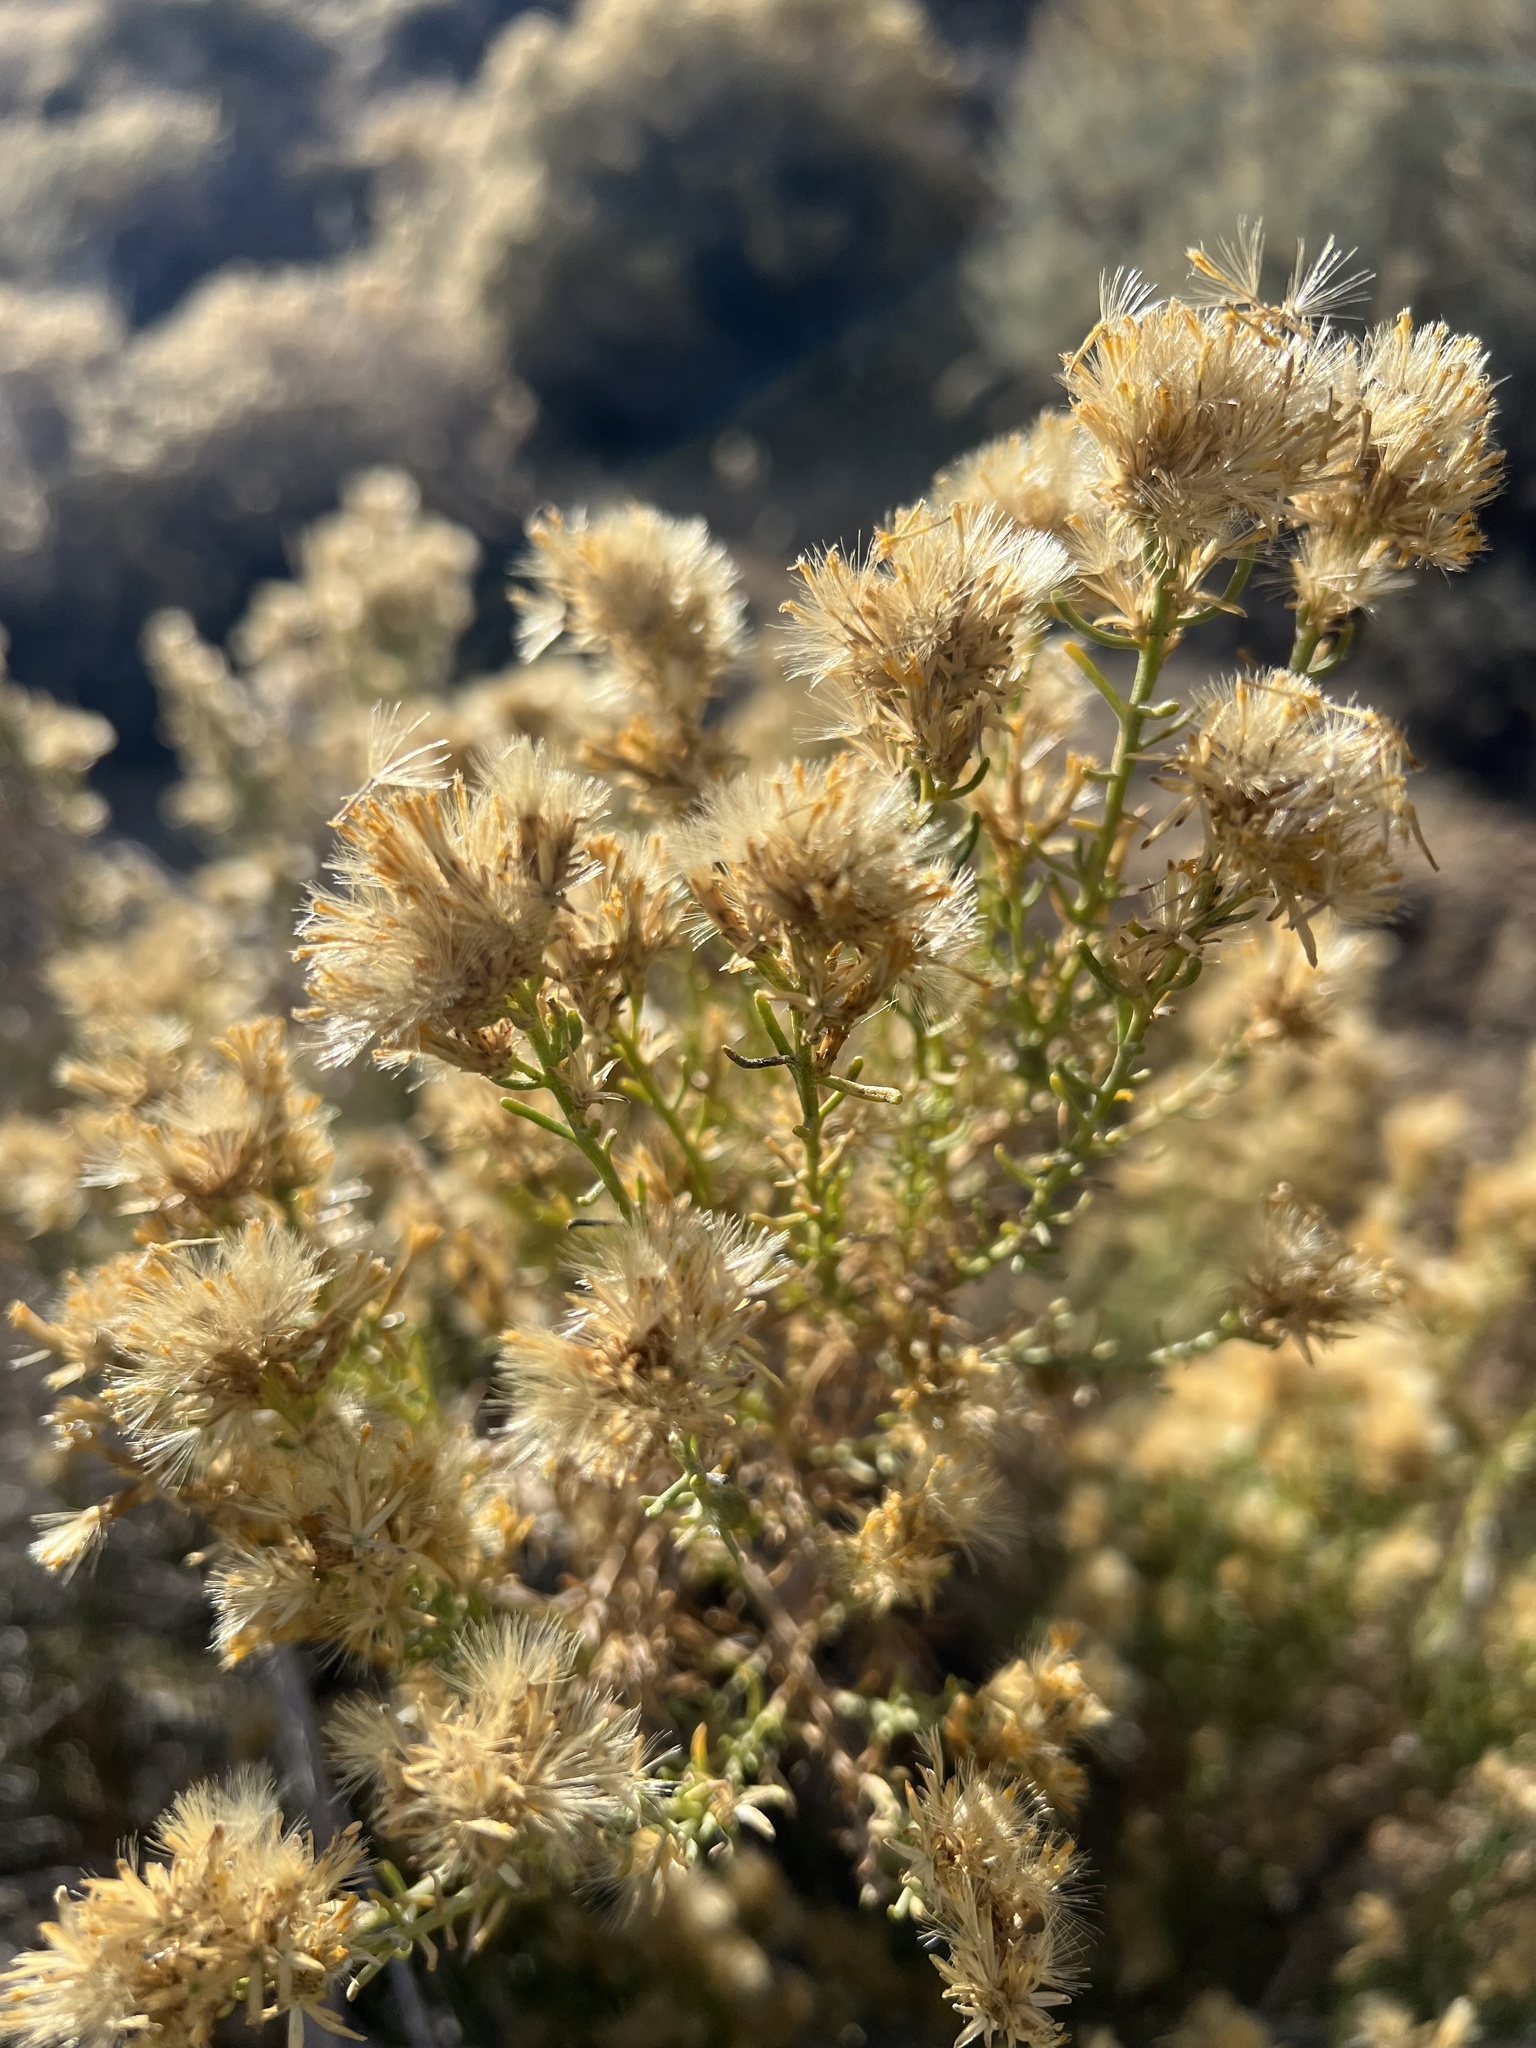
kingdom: Plantae
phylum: Tracheophyta
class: Magnoliopsida
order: Asterales
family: Asteraceae
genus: Ericameria
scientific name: Ericameria teretifolia
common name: Round-leaf rabbitbrush
